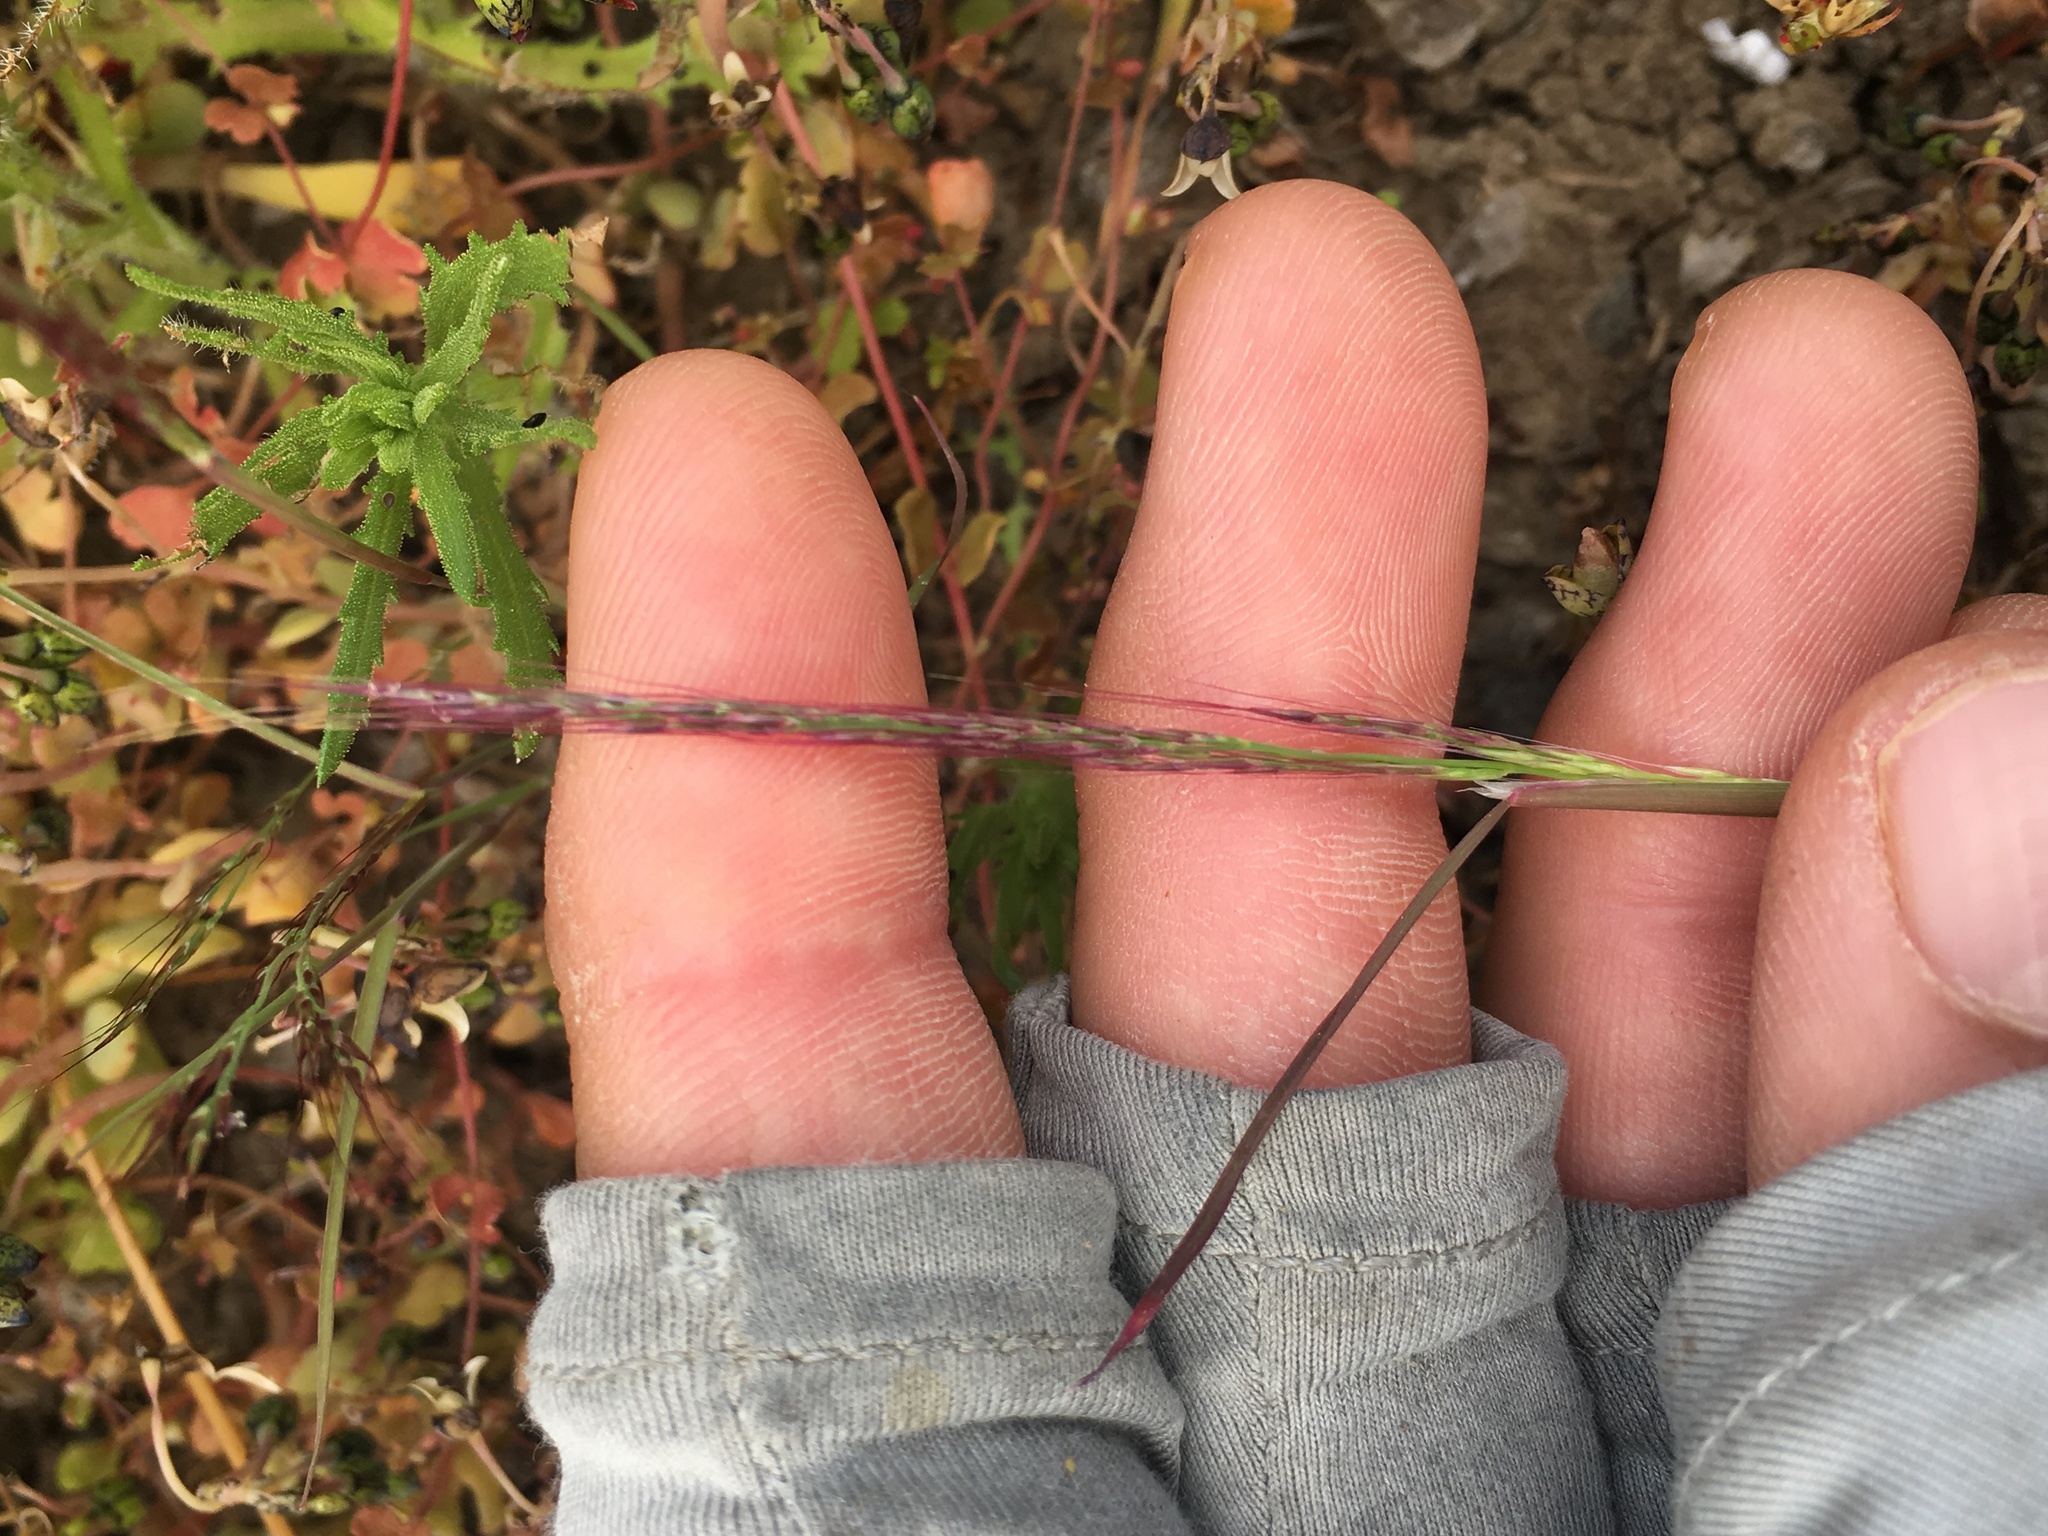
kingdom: Plantae
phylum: Tracheophyta
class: Liliopsida
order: Poales
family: Poaceae
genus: Muhlenbergia
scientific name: Muhlenbergia microsperma
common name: Littleseed muhly
